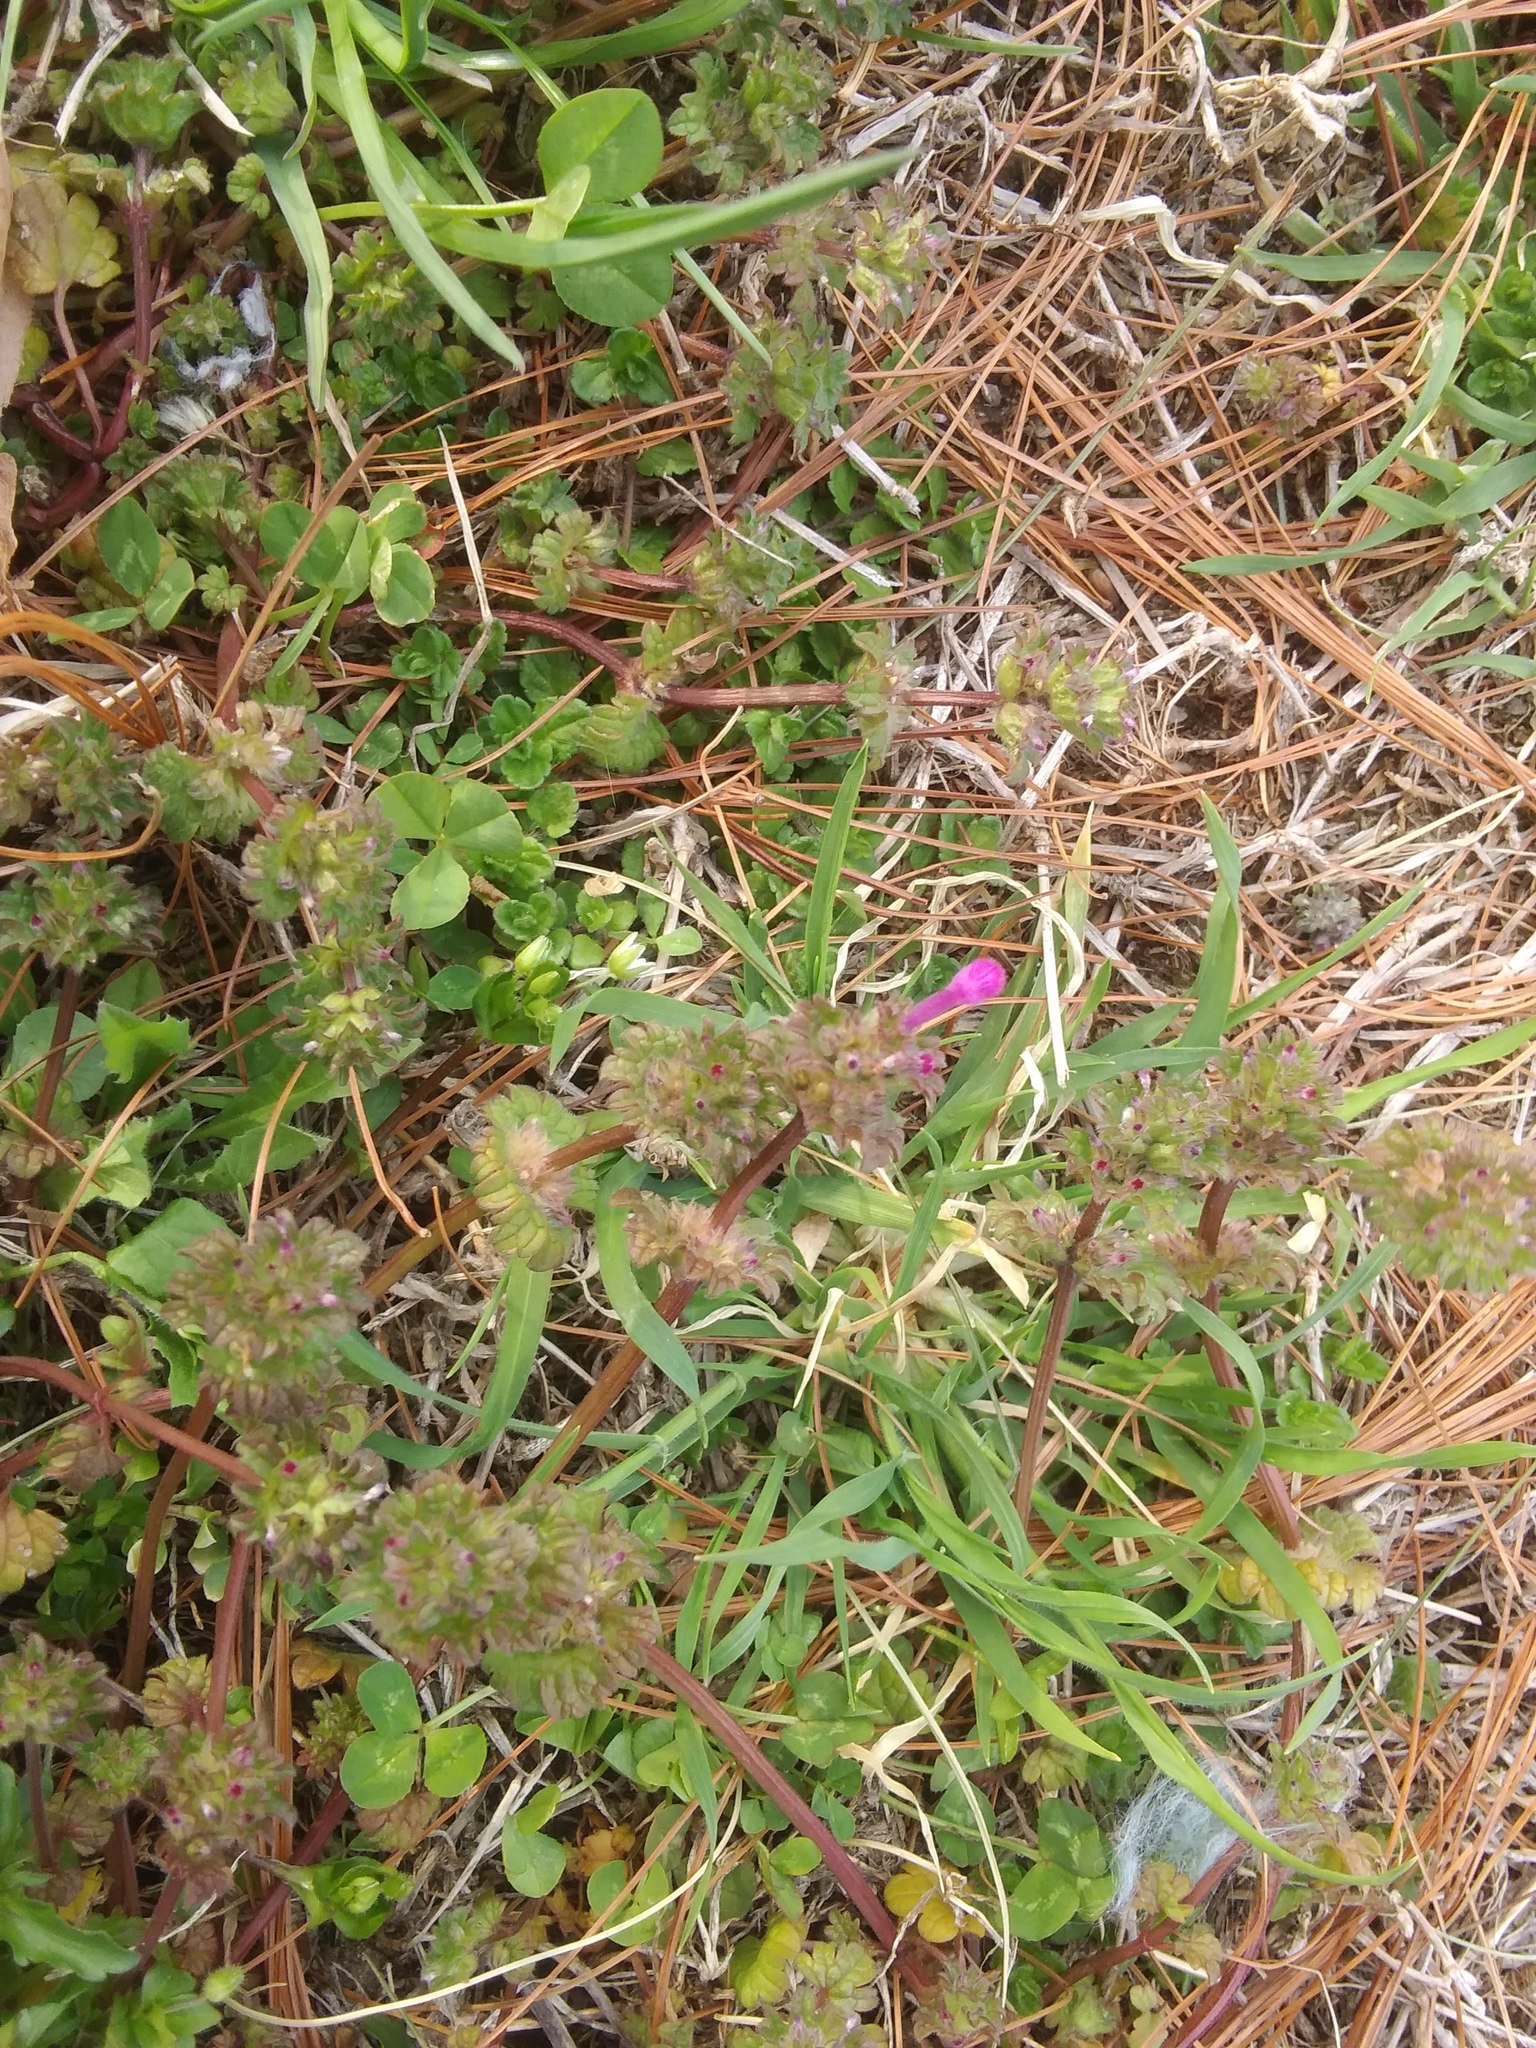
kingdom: Plantae
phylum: Tracheophyta
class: Magnoliopsida
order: Lamiales
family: Lamiaceae
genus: Lamium
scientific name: Lamium amplexicaule
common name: Henbit dead-nettle
